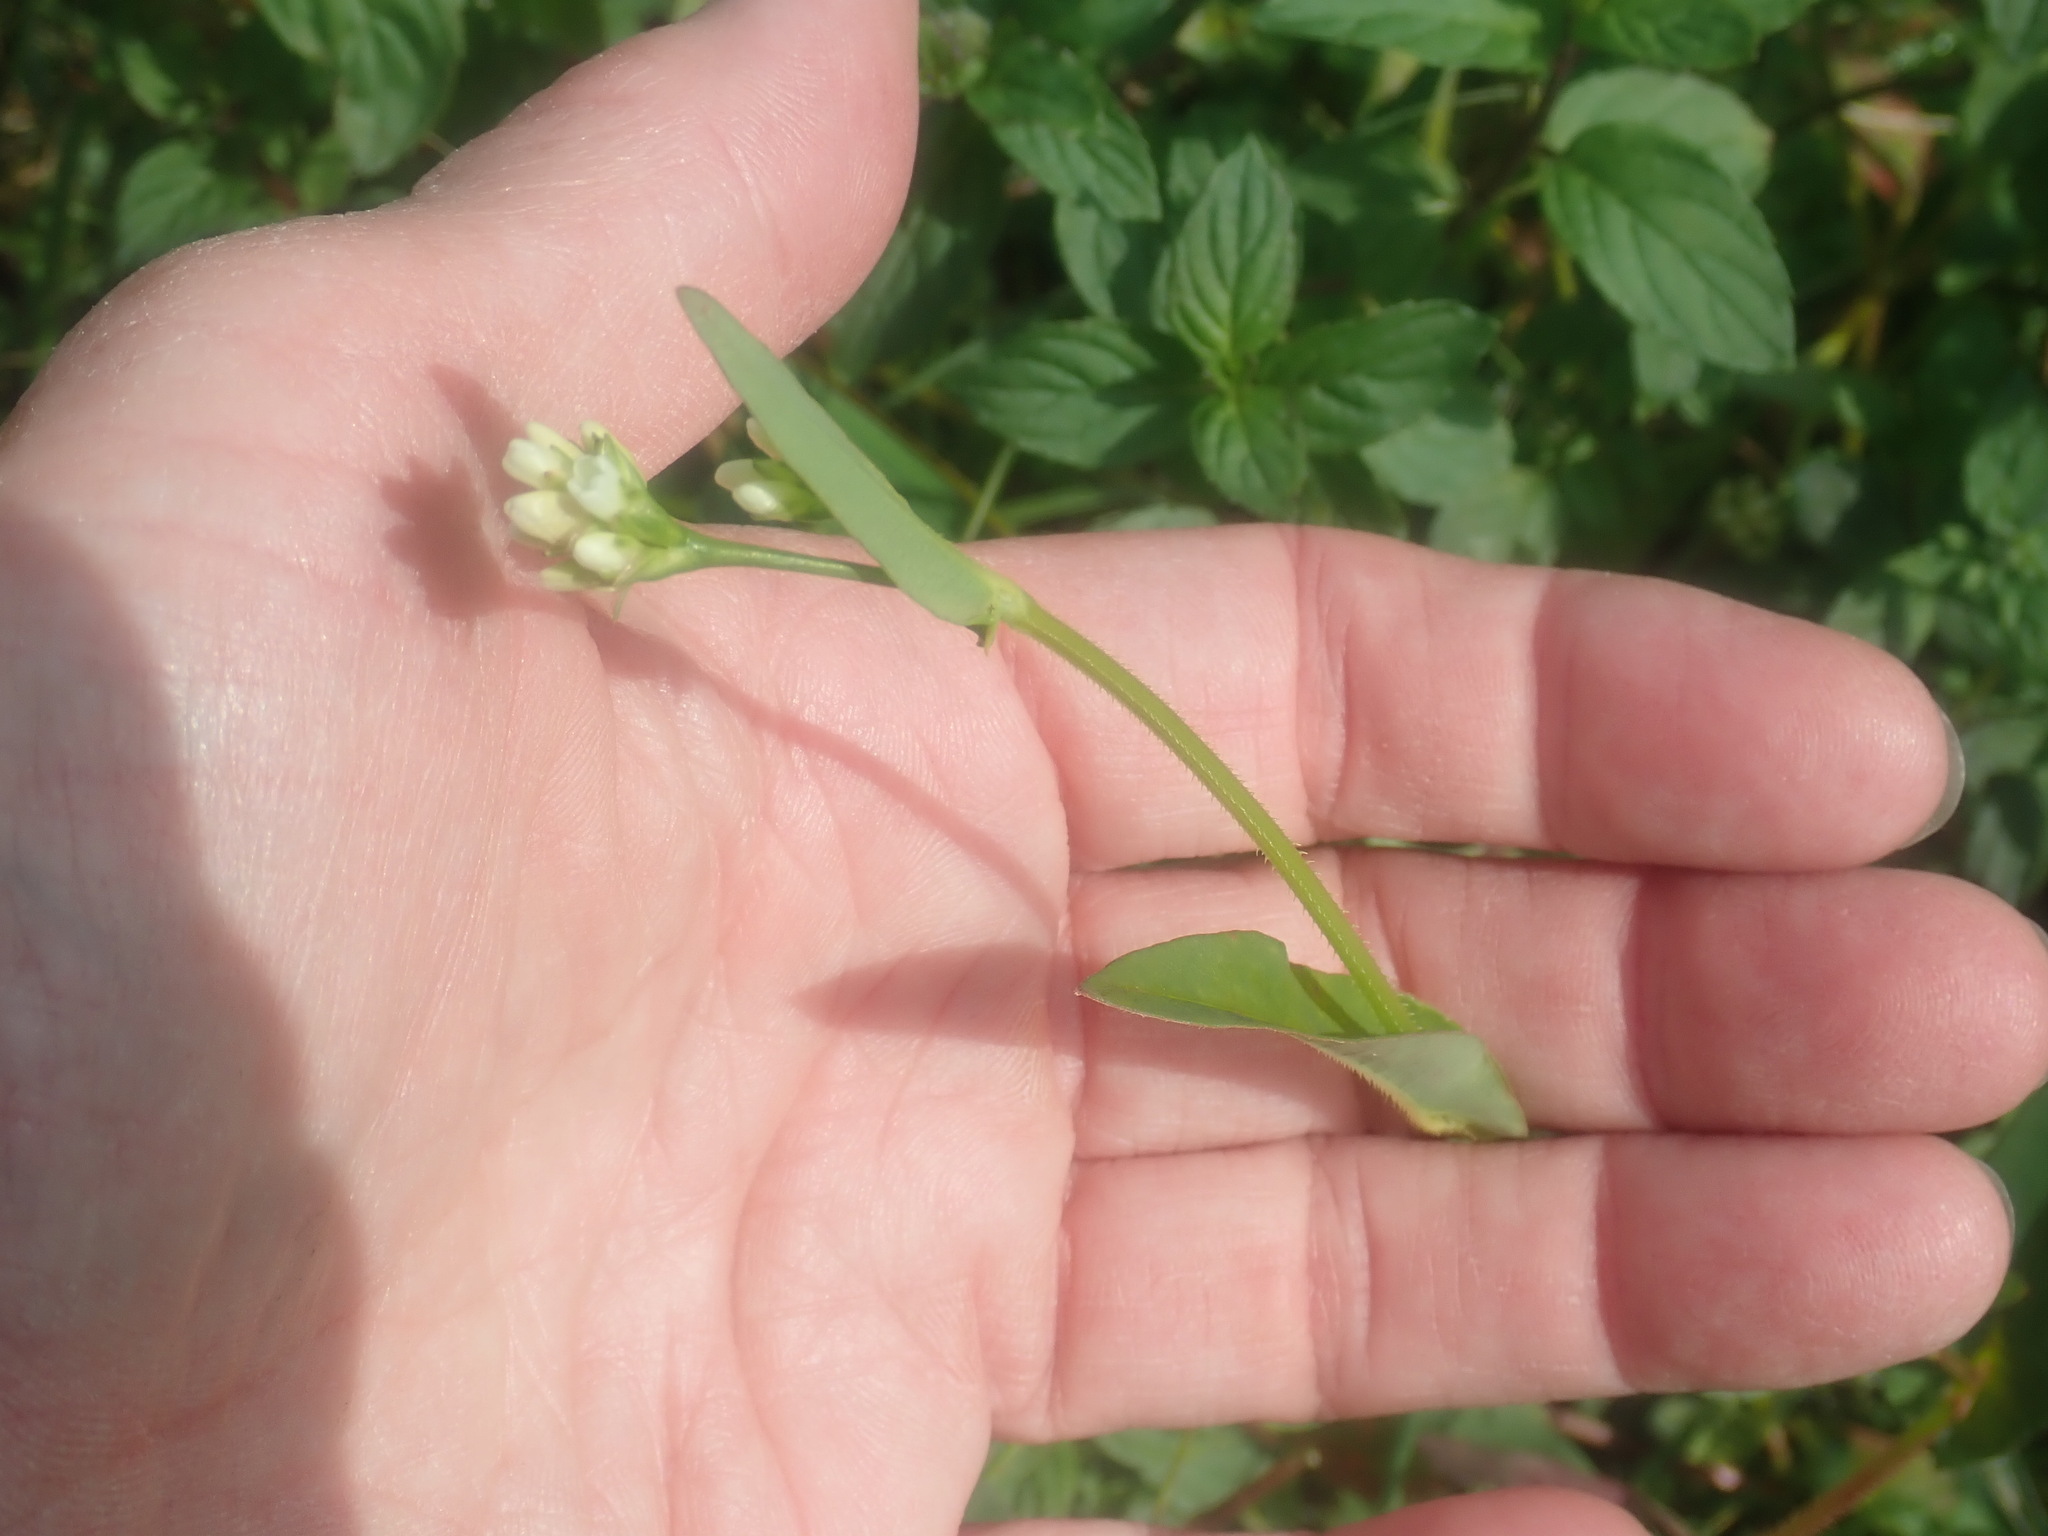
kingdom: Plantae
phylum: Tracheophyta
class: Magnoliopsida
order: Caryophyllales
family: Polygonaceae
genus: Persicaria
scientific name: Persicaria sagittata
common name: American tearthumb
